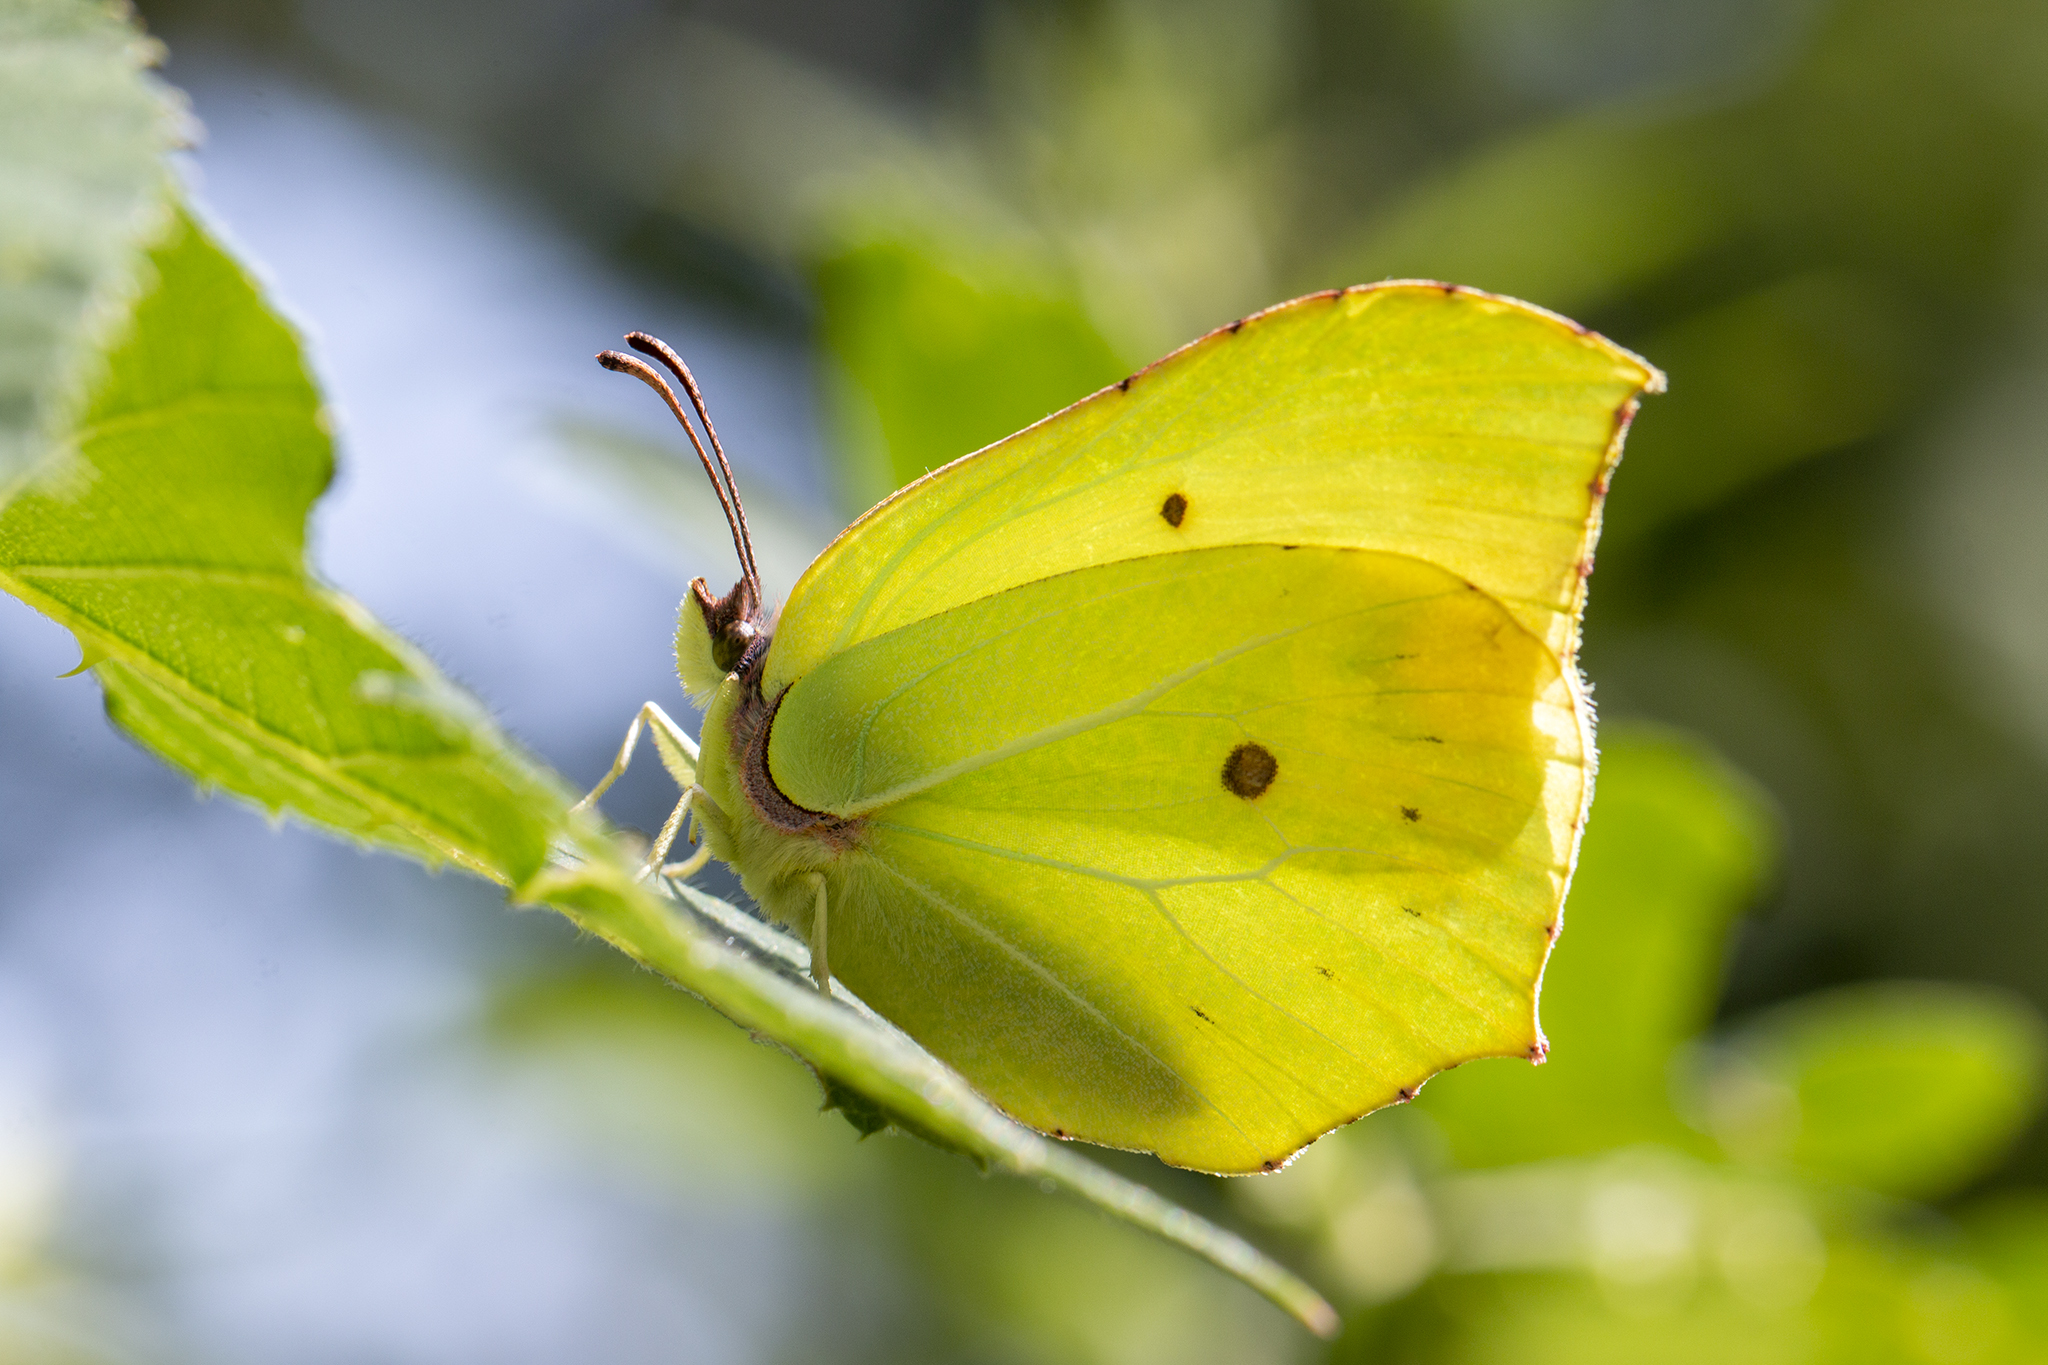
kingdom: Animalia
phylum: Arthropoda
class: Insecta
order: Lepidoptera
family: Pieridae
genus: Gonepteryx
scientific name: Gonepteryx rhamni
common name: Brimstone
